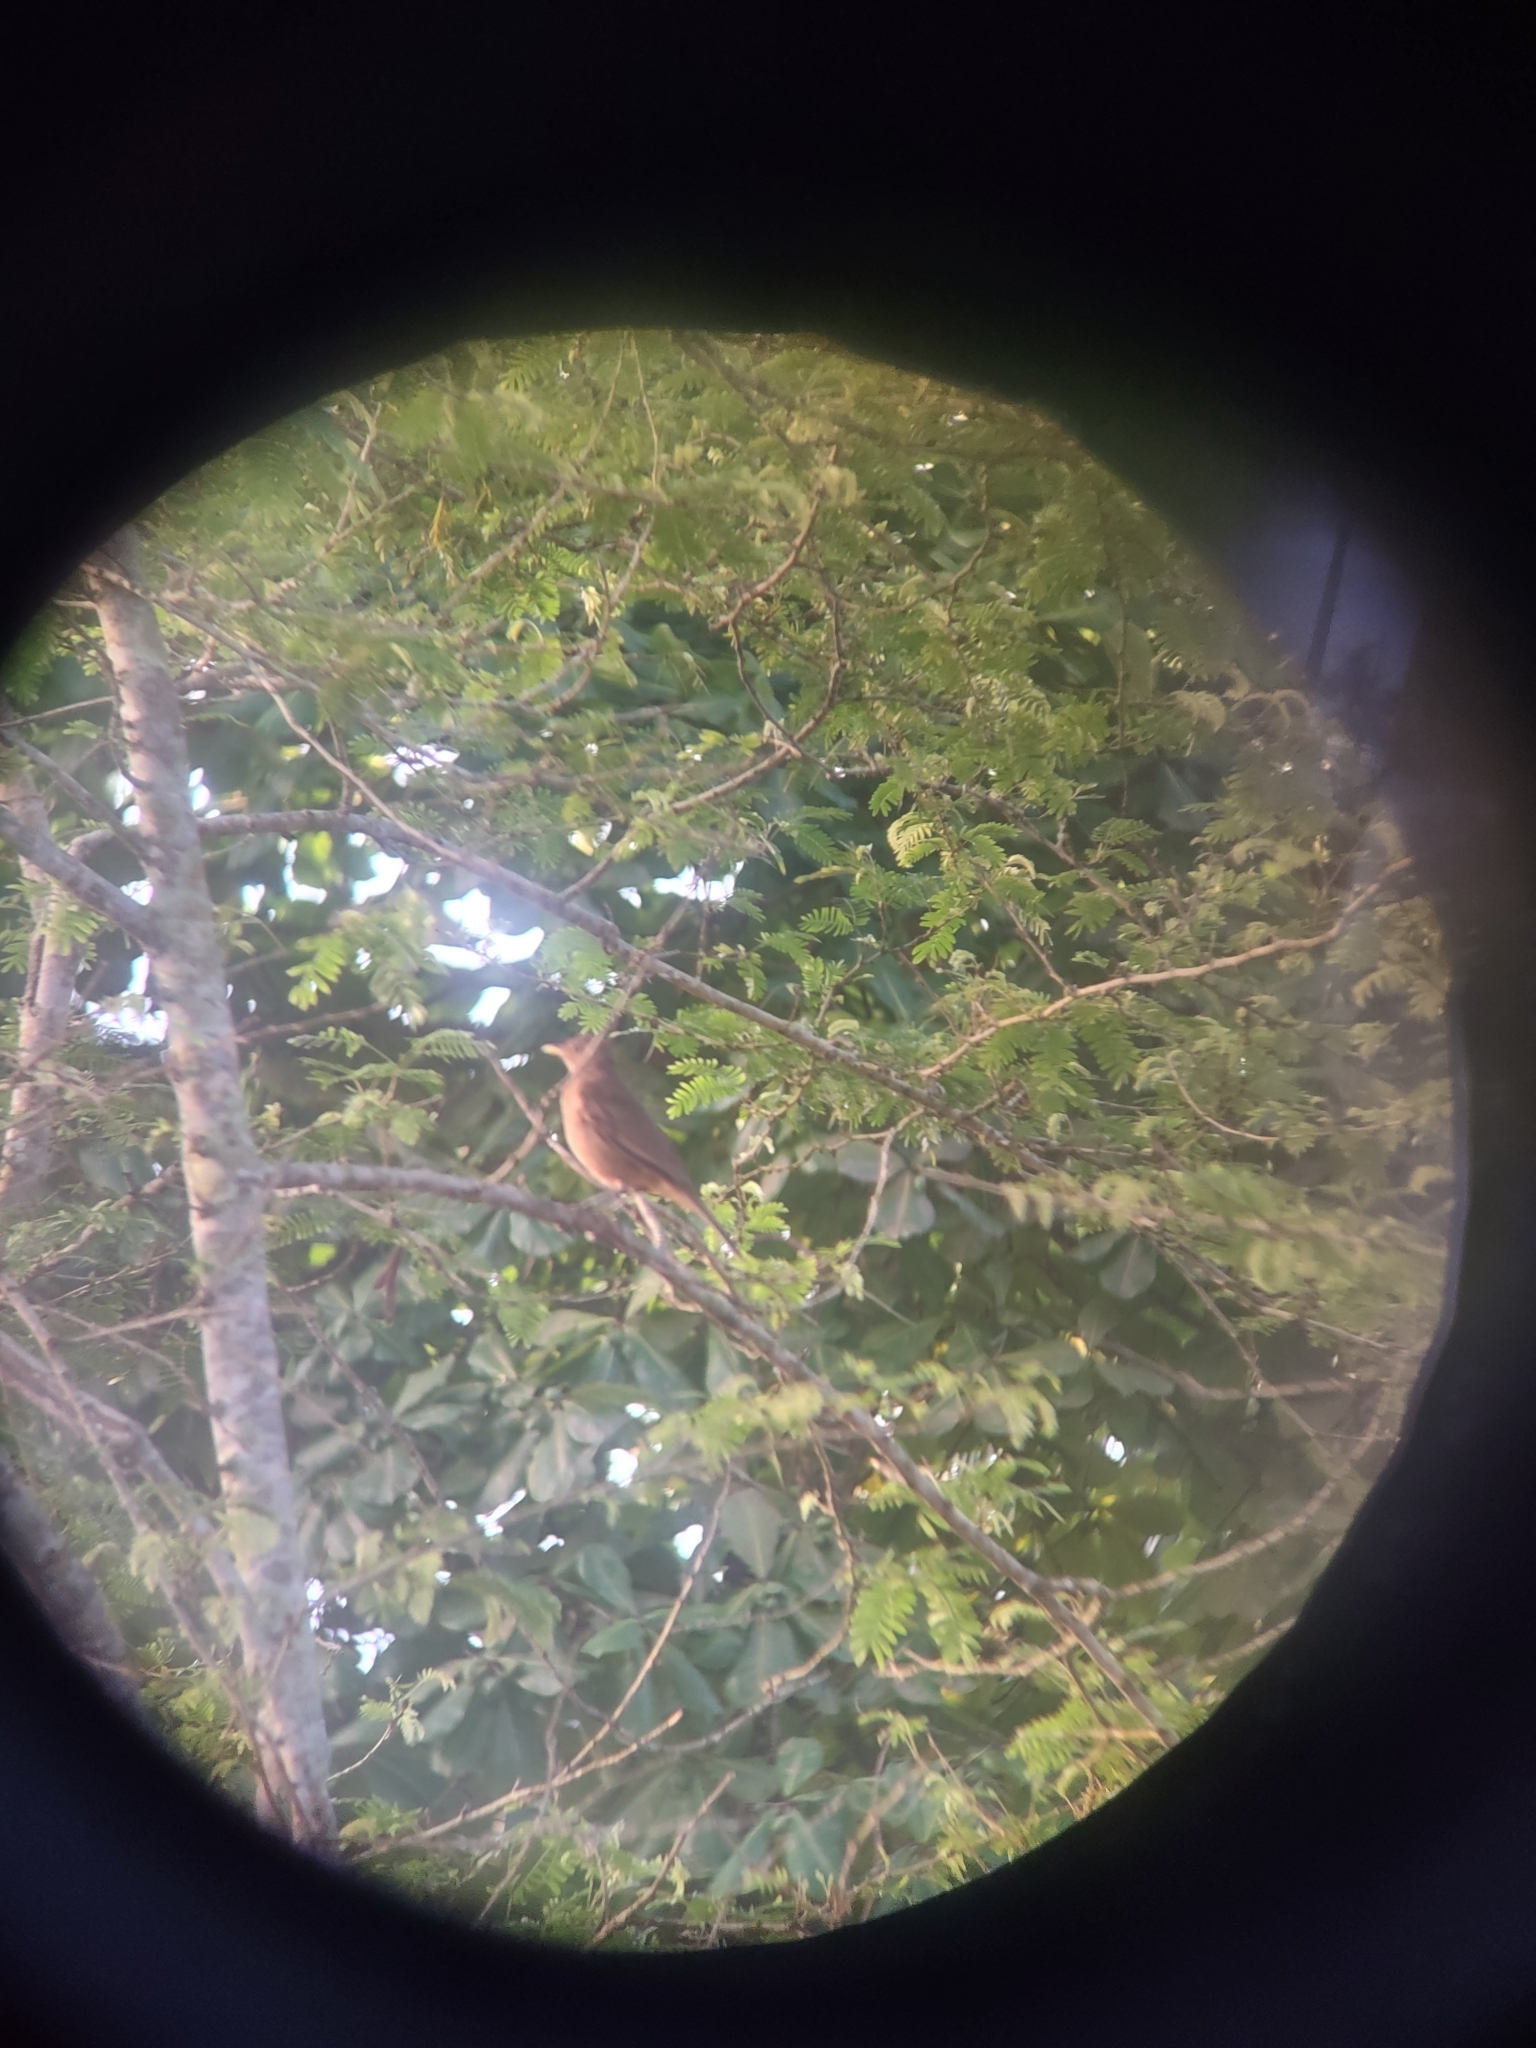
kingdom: Animalia
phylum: Chordata
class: Aves
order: Passeriformes
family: Turdidae
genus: Turdus
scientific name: Turdus grayi
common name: Clay-colored thrush
